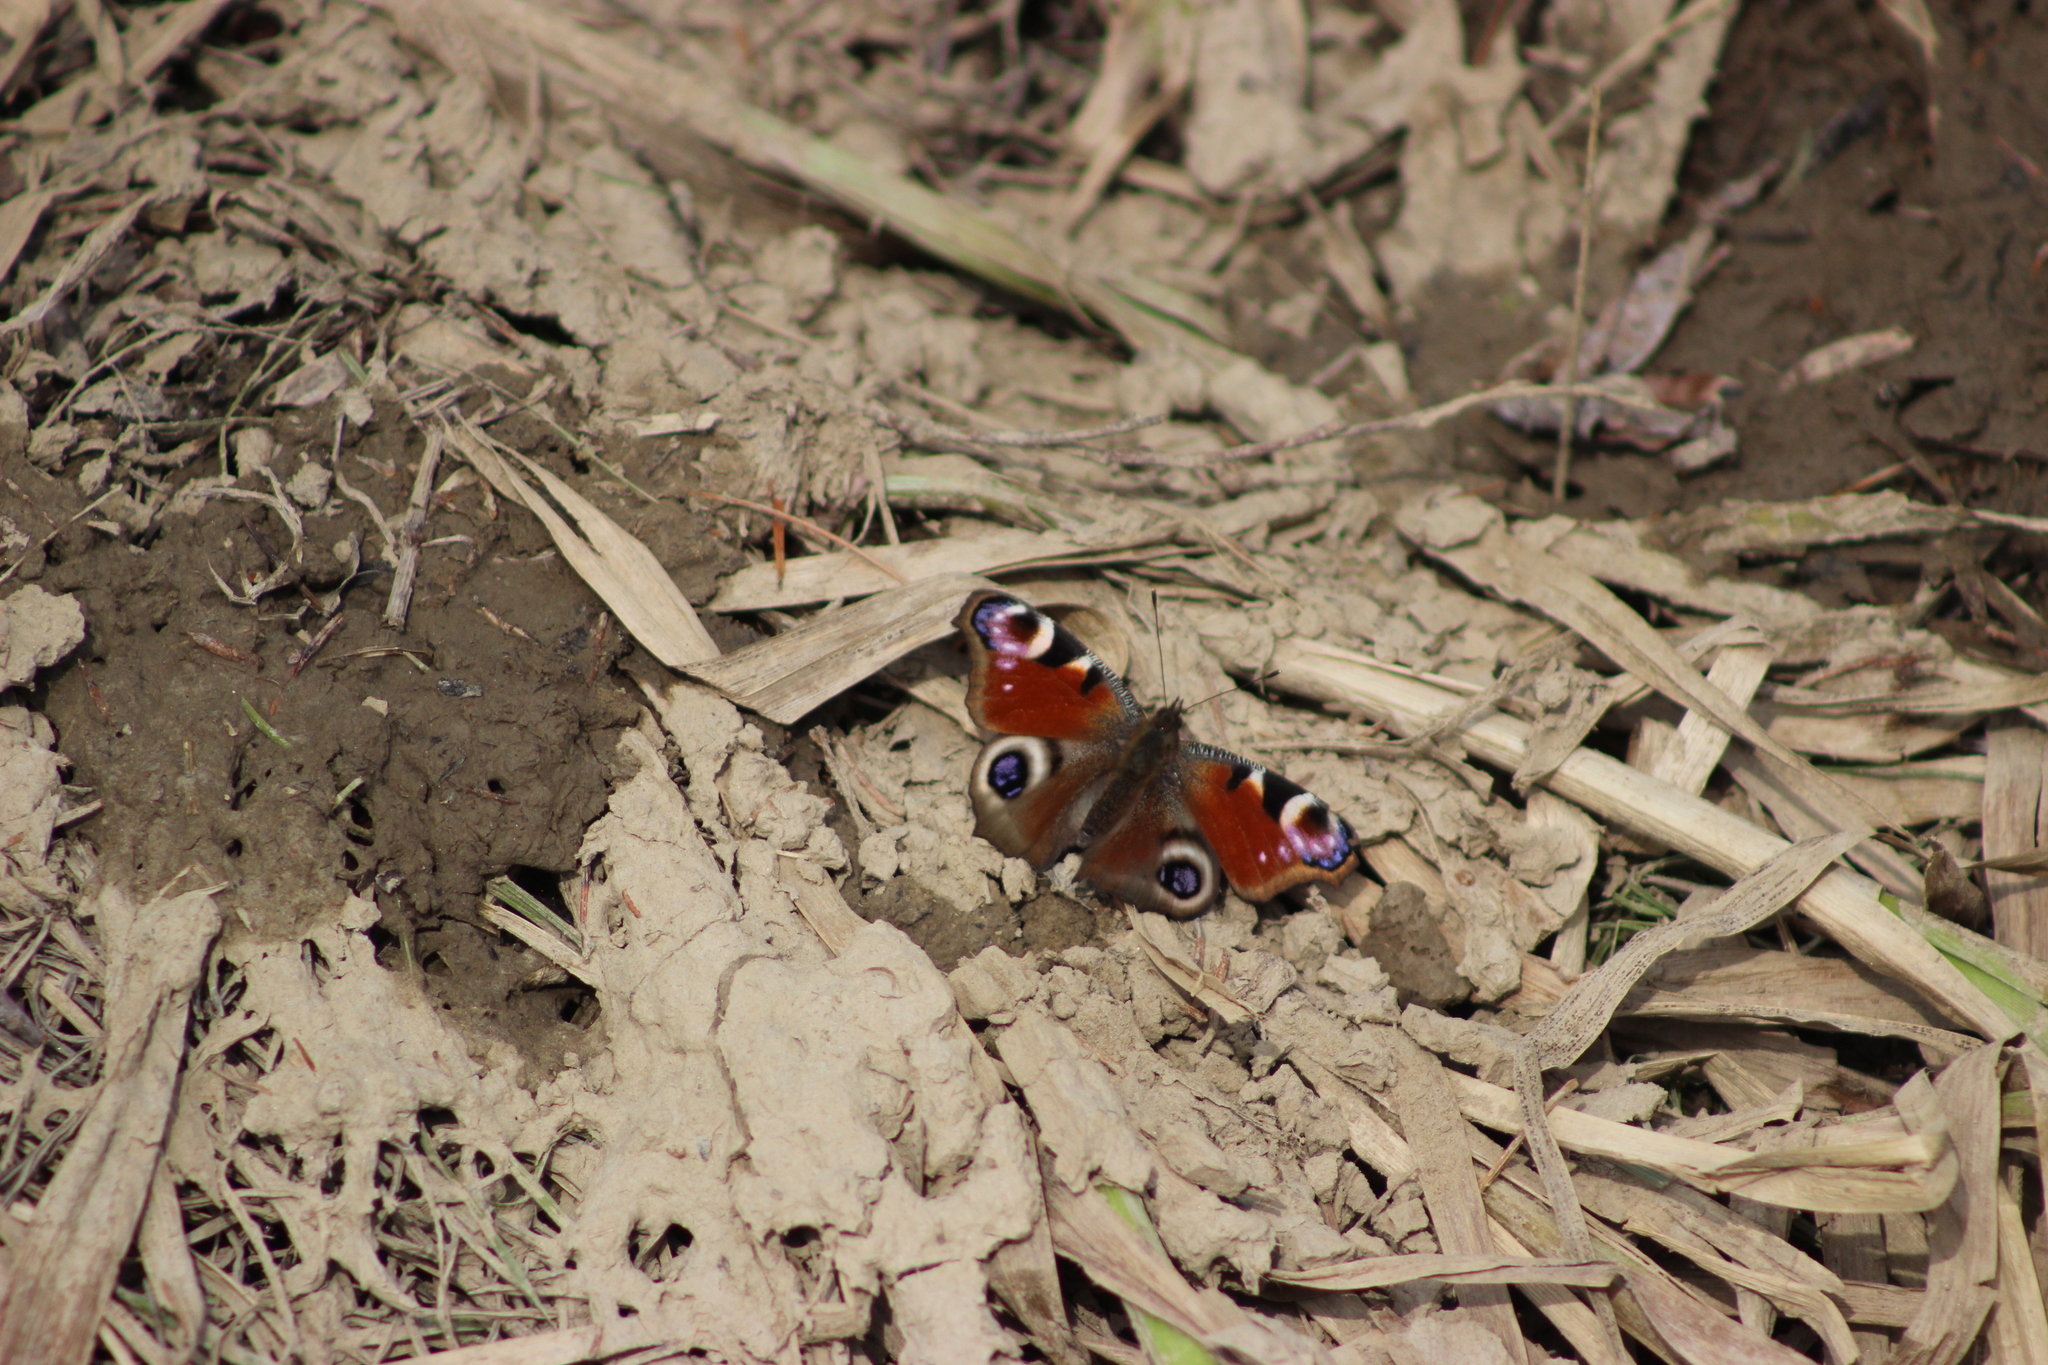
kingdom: Animalia
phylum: Arthropoda
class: Insecta
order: Lepidoptera
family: Nymphalidae
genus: Aglais
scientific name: Aglais io
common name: Peacock
